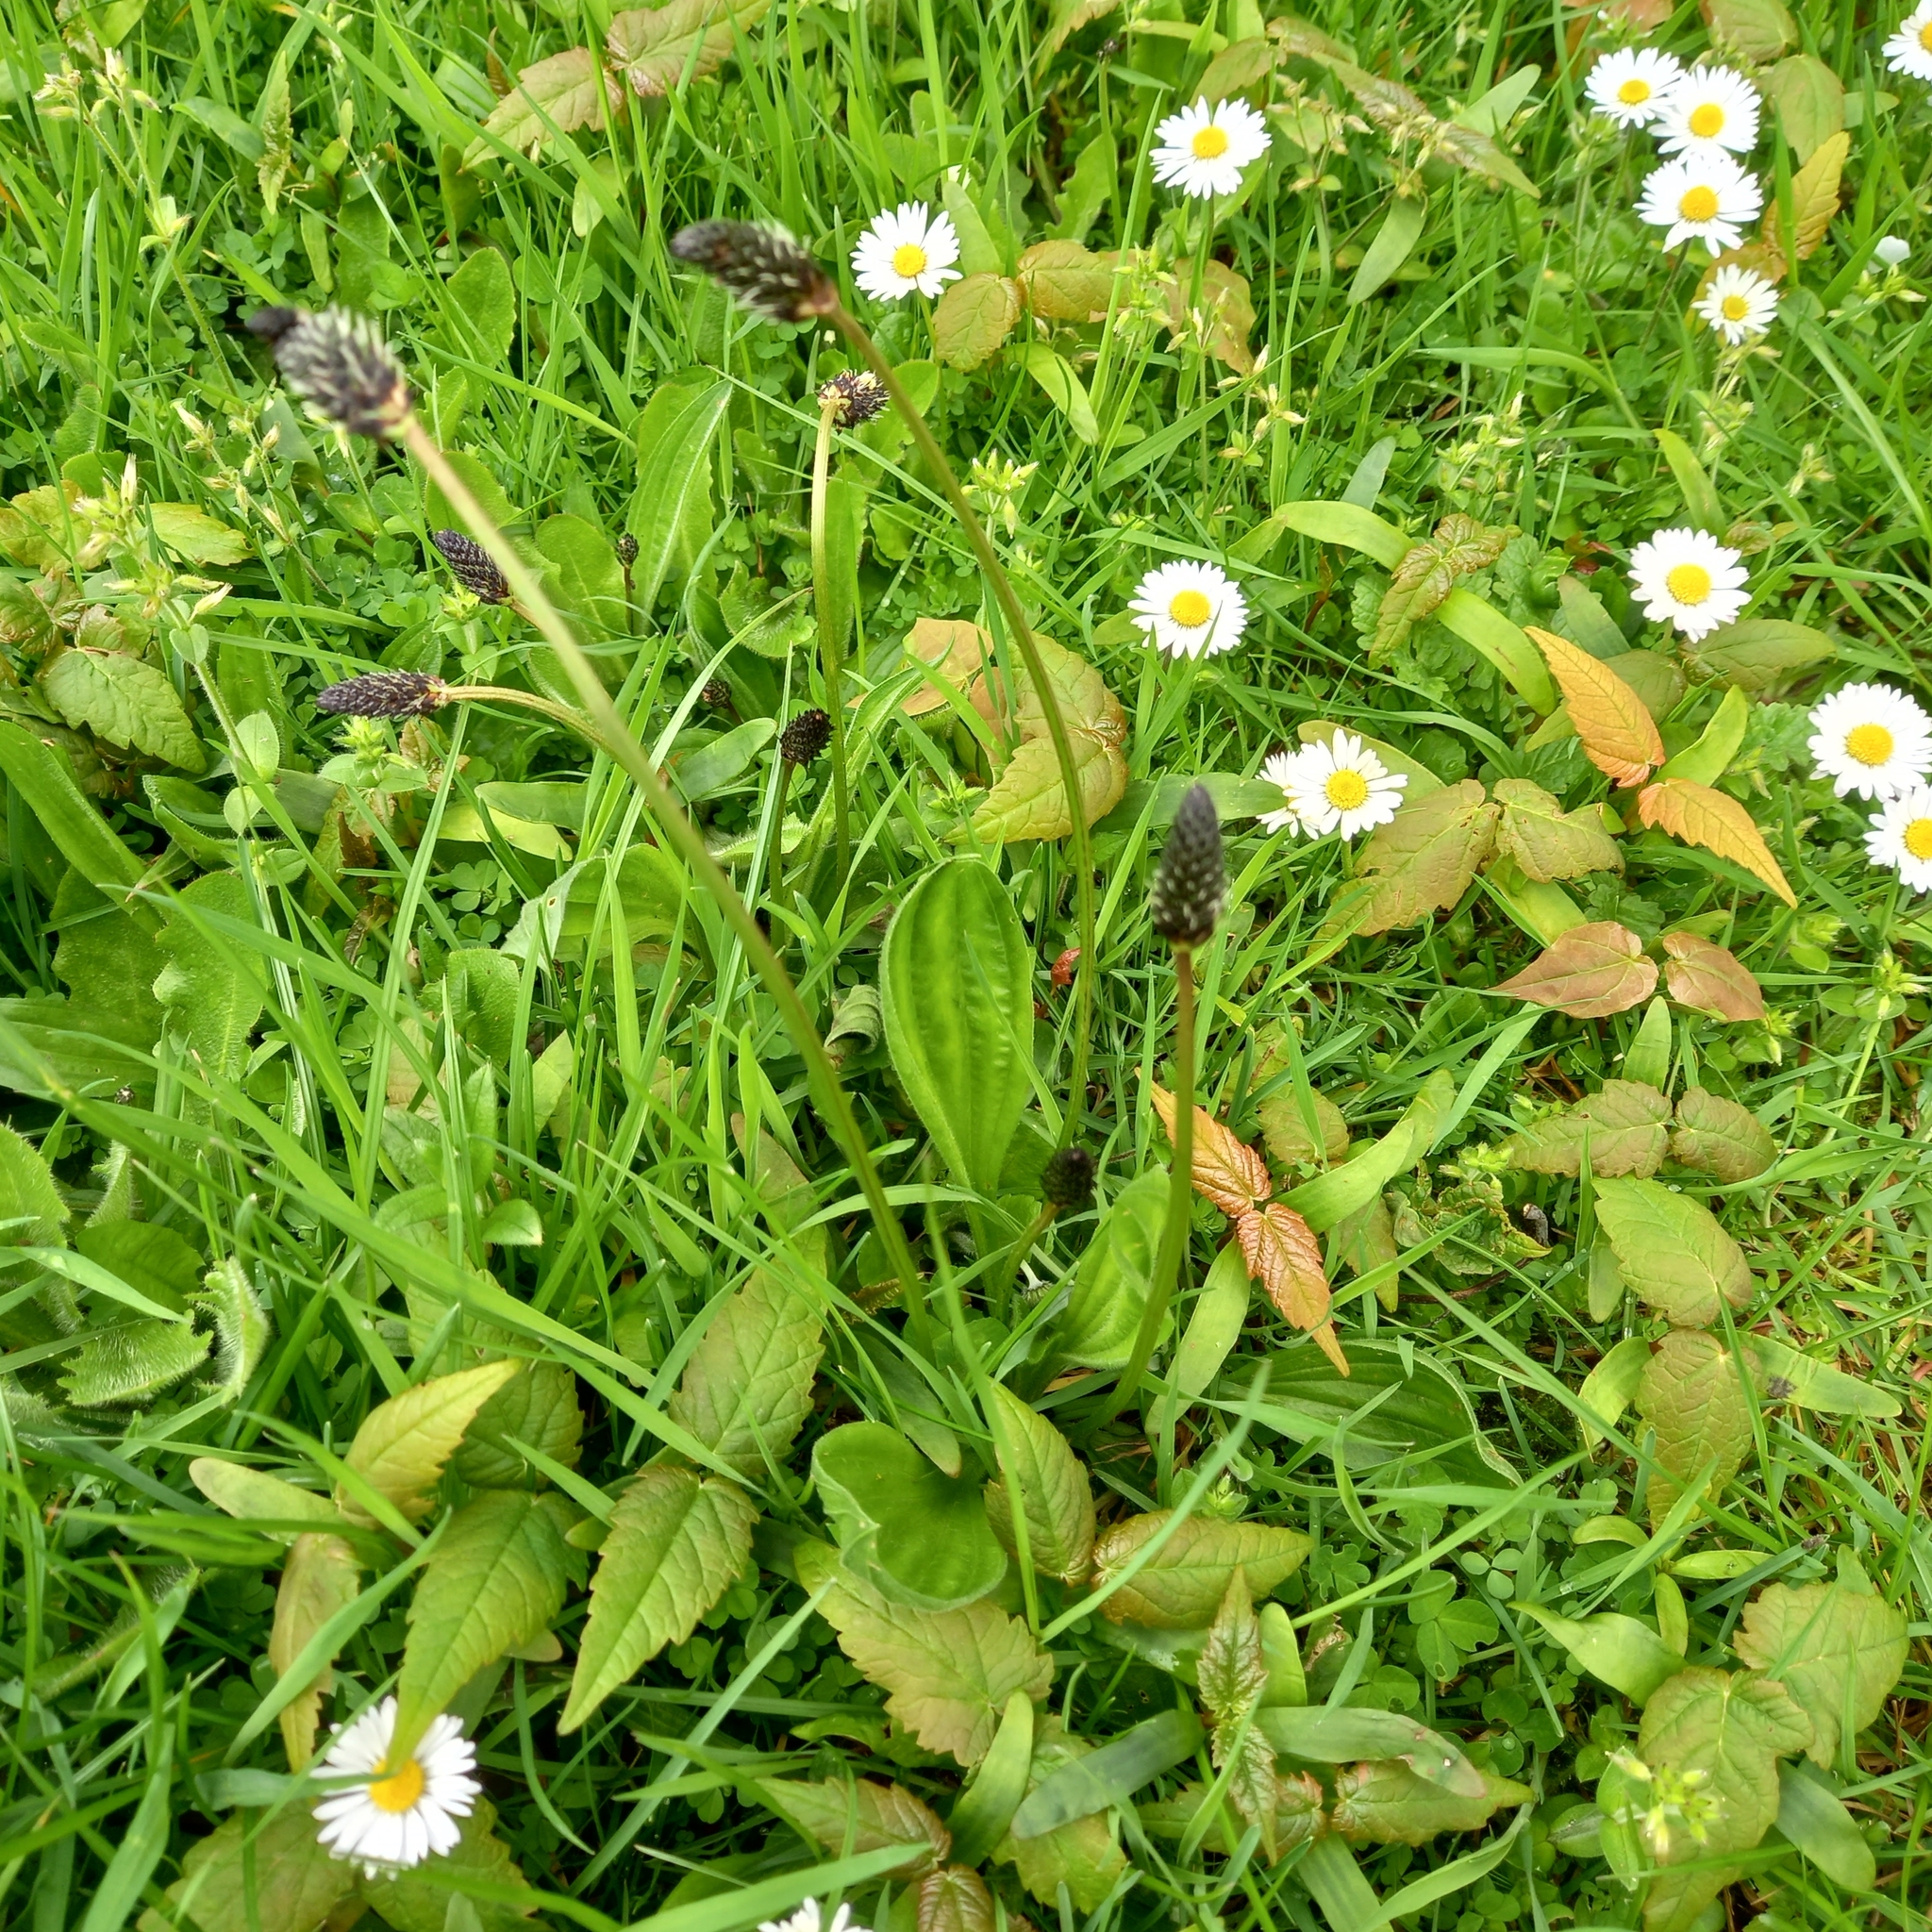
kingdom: Plantae
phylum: Tracheophyta
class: Magnoliopsida
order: Lamiales
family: Plantaginaceae
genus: Plantago
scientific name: Plantago lanceolata
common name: Ribwort plantain
